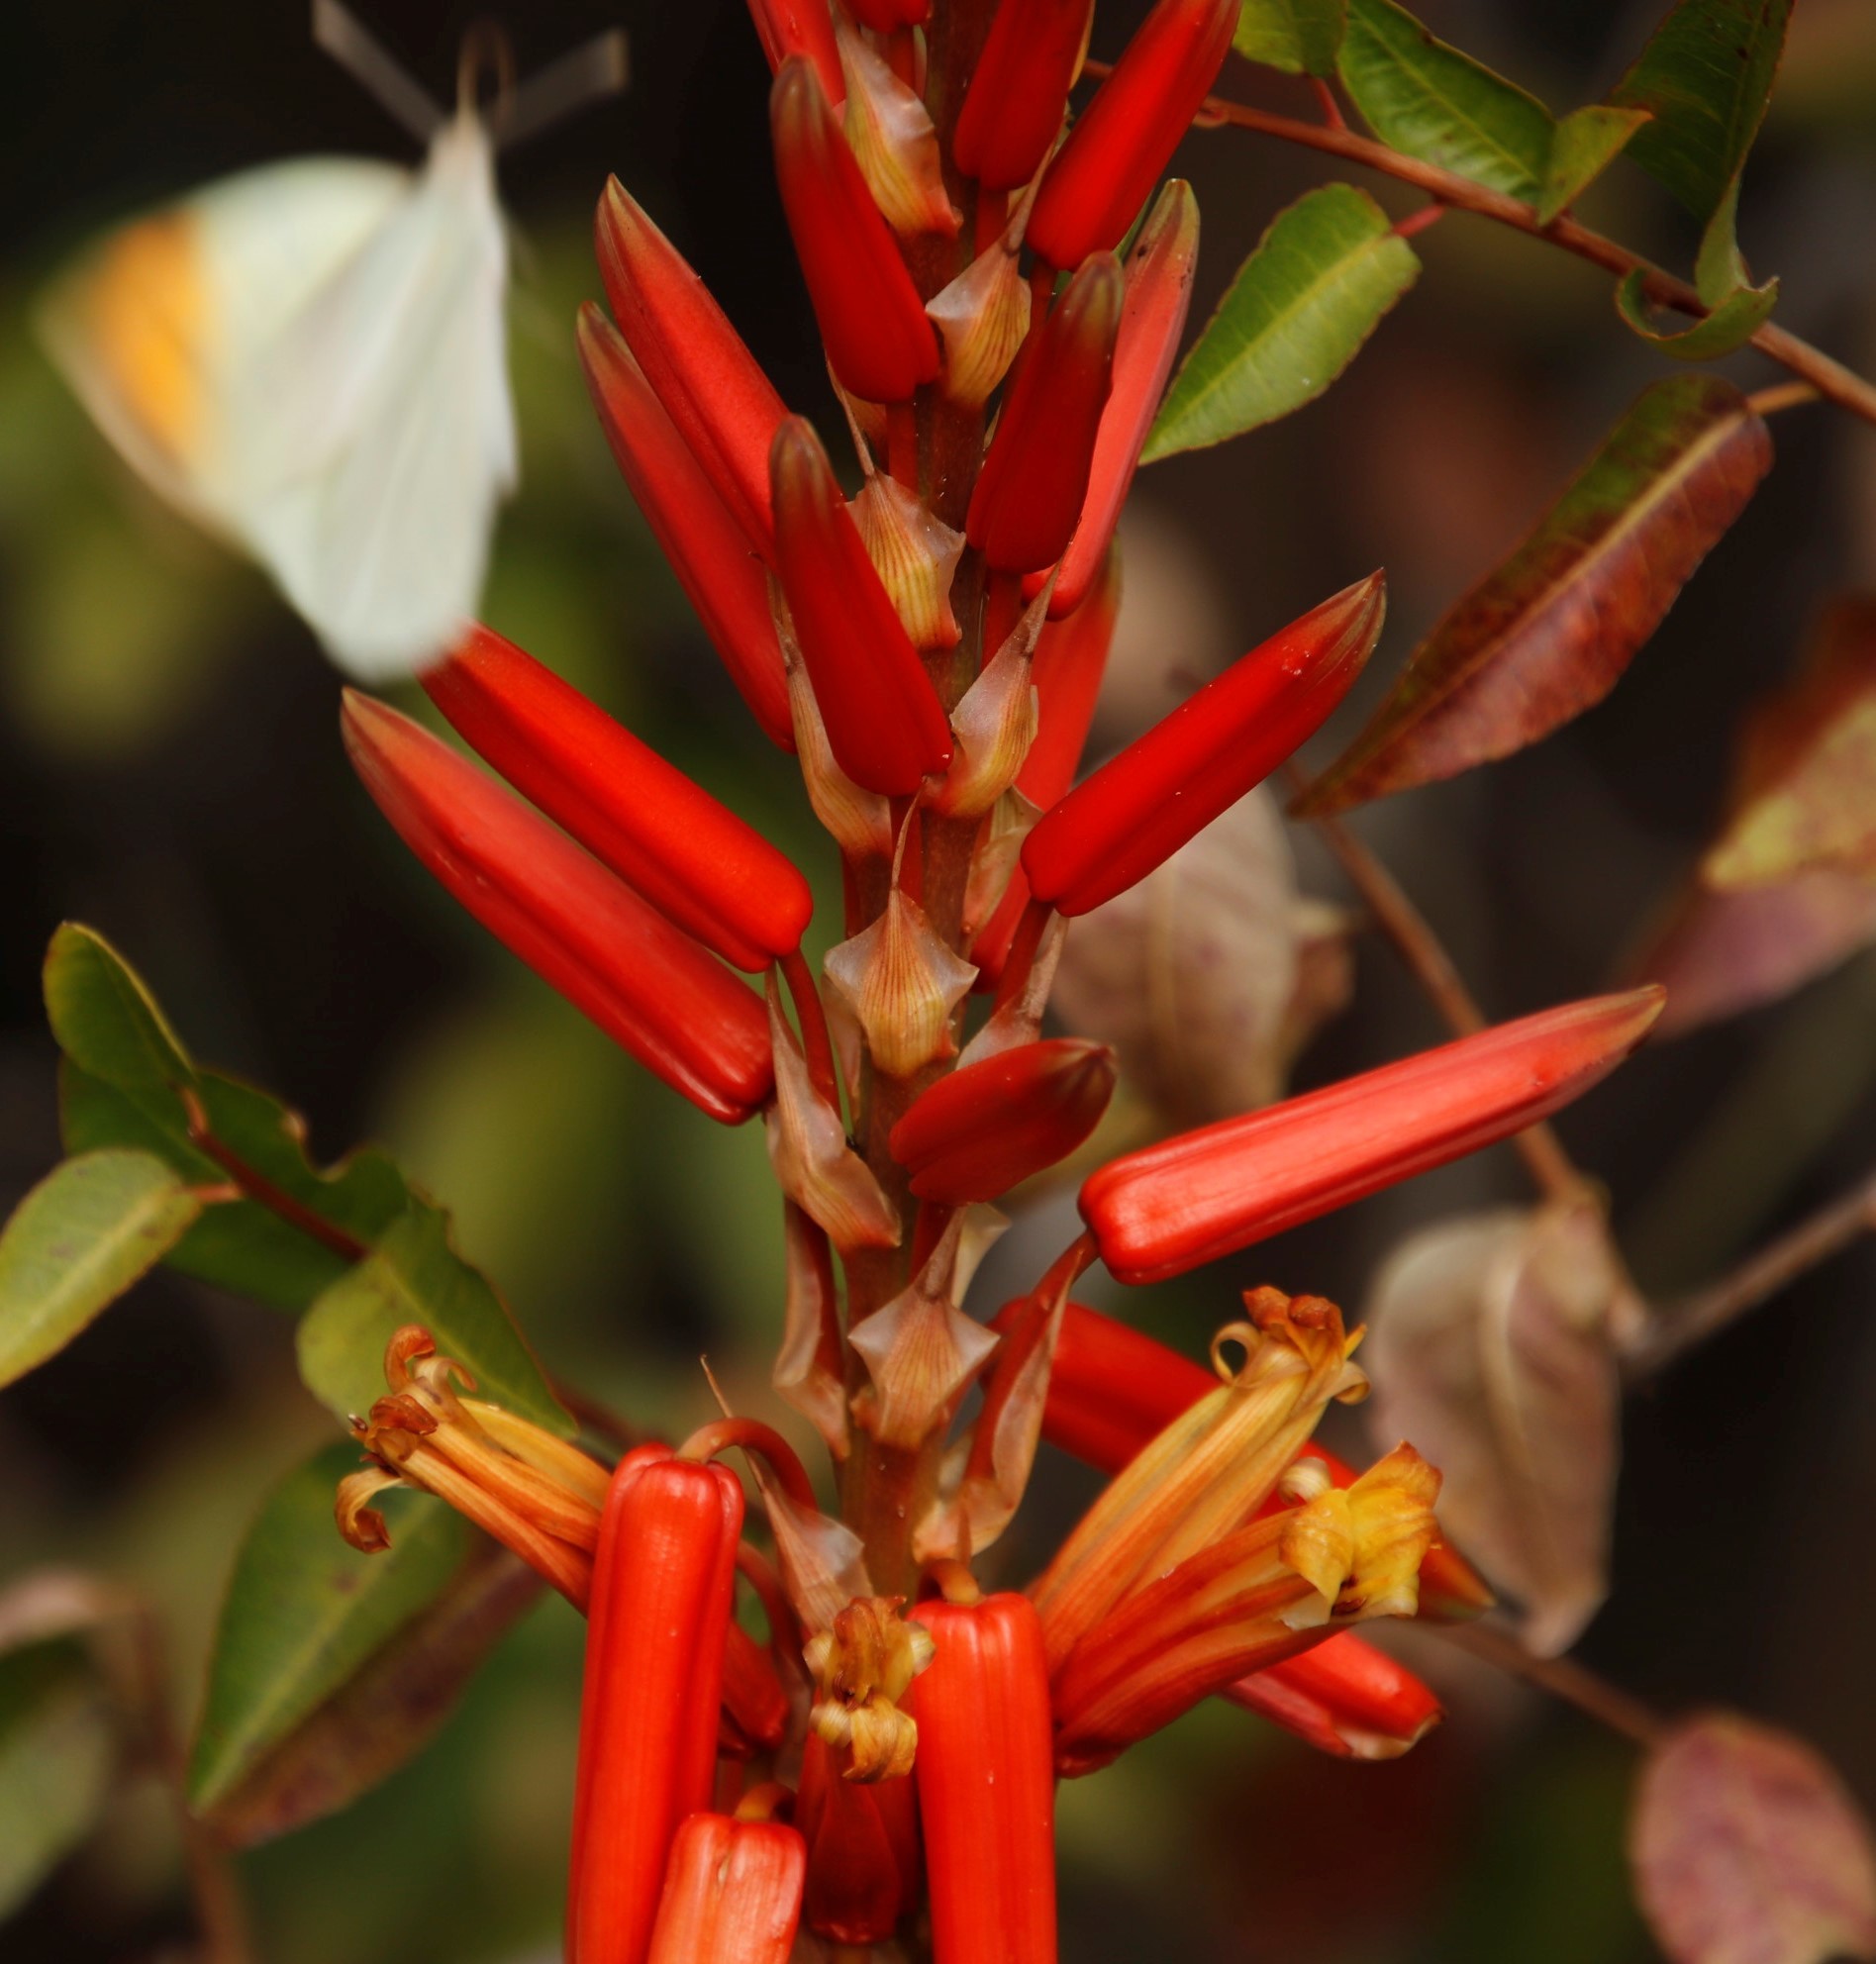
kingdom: Plantae
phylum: Tracheophyta
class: Liliopsida
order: Asparagales
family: Asphodelaceae
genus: Aloe
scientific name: Aloe pienaarii
